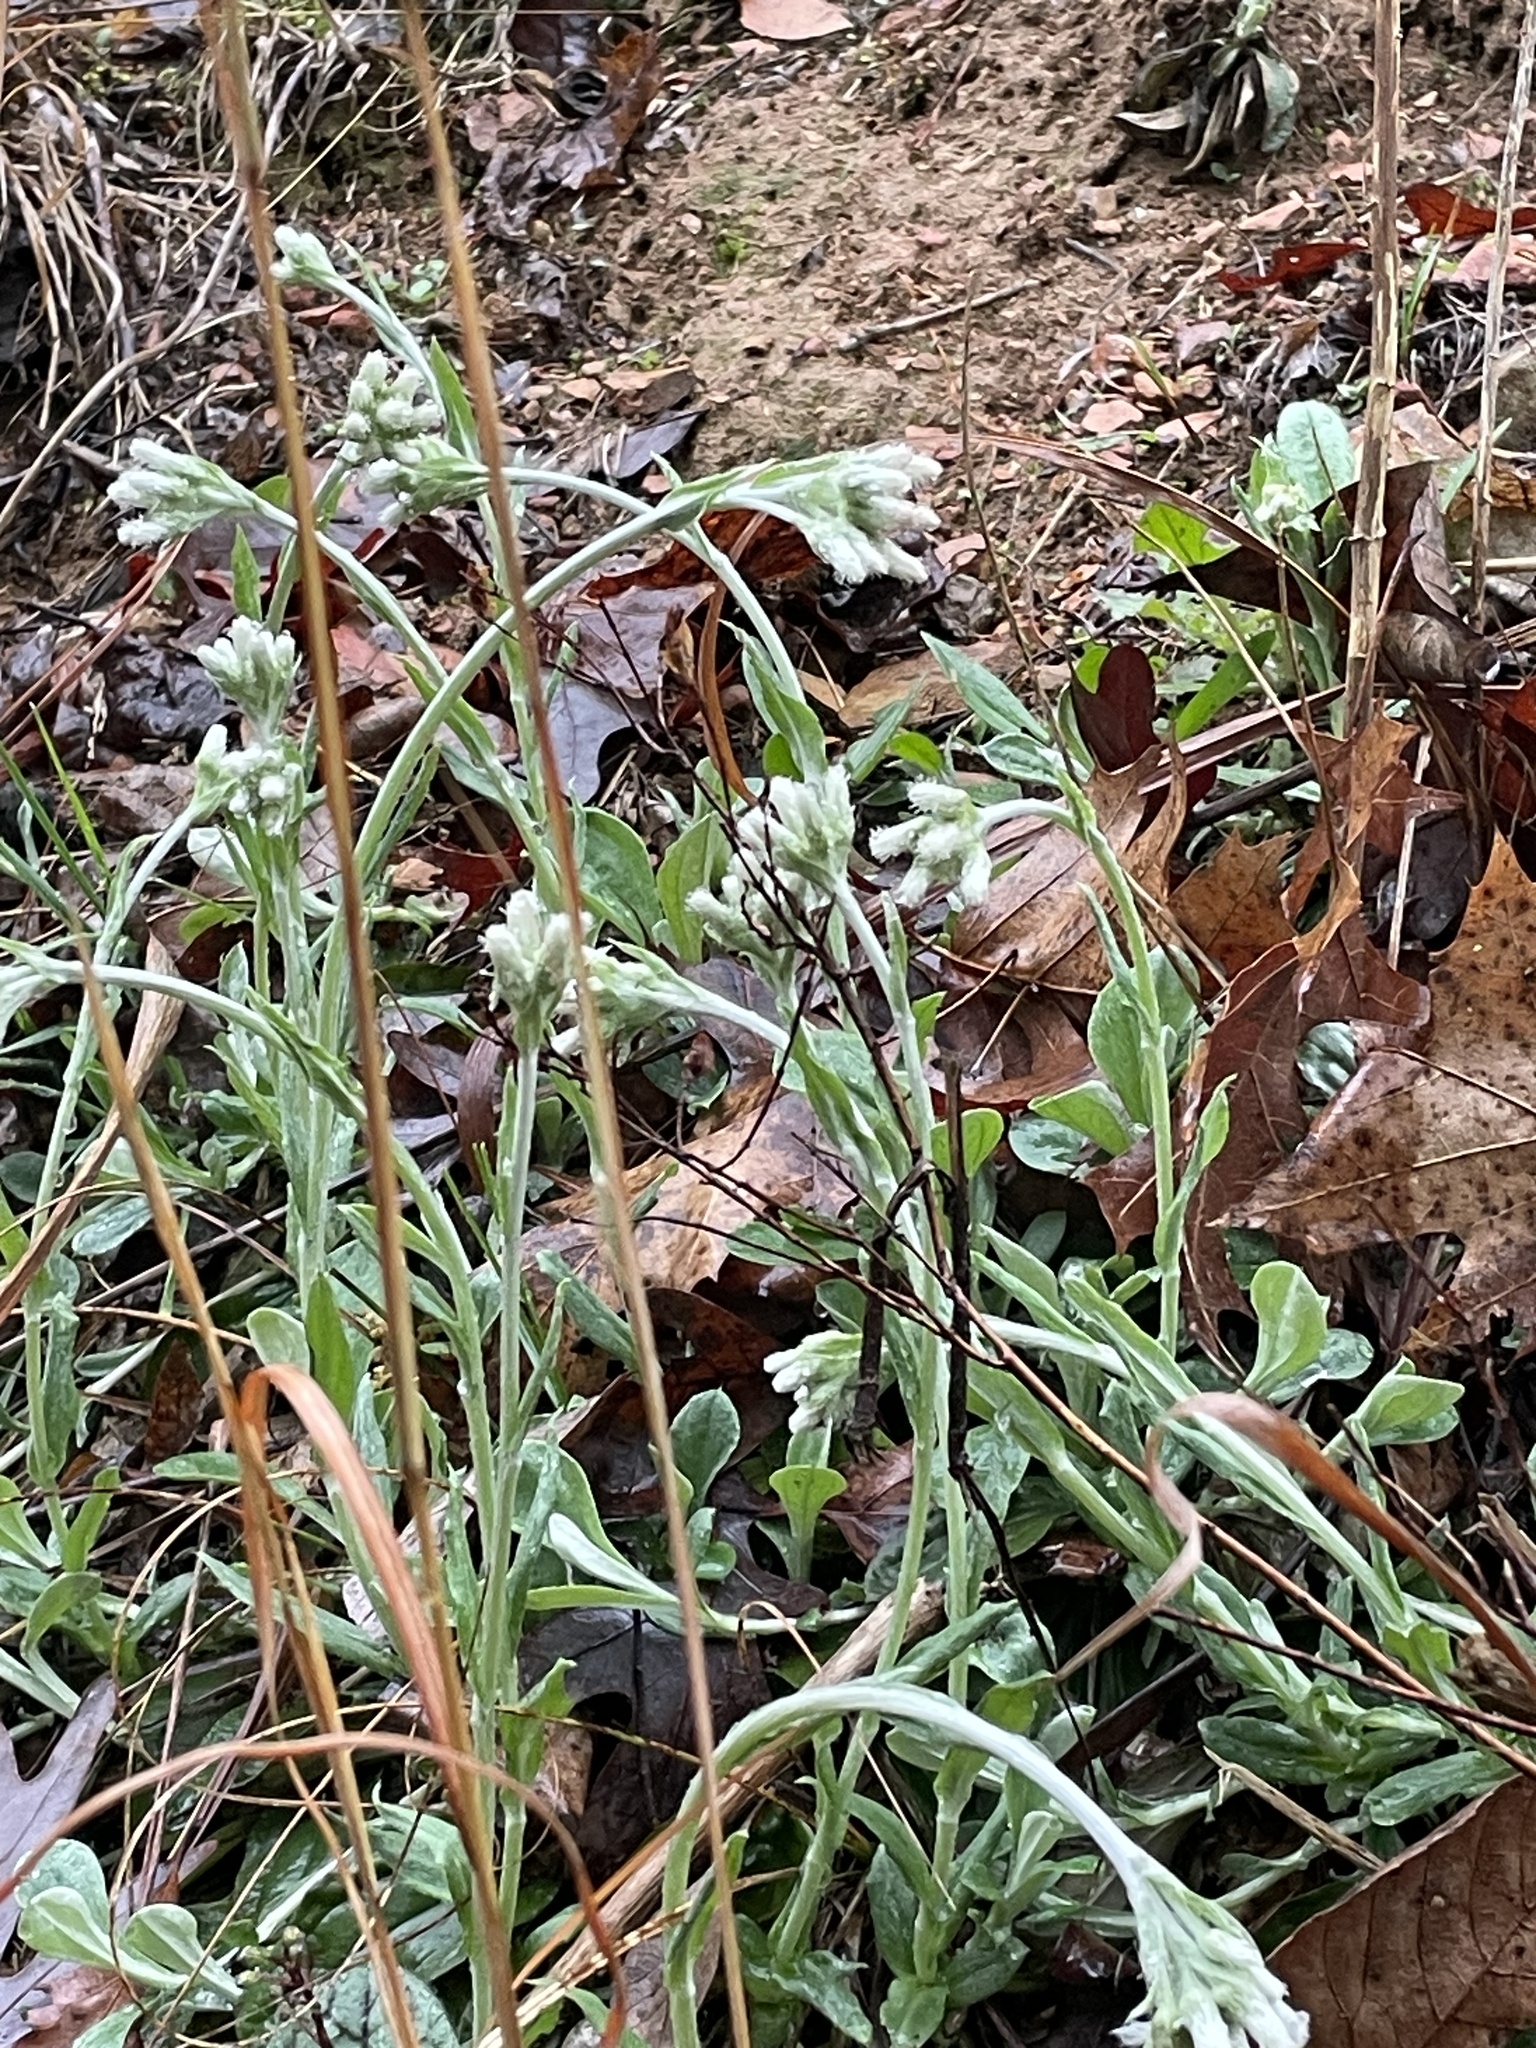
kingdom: Plantae
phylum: Tracheophyta
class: Magnoliopsida
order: Asterales
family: Asteraceae
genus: Antennaria
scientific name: Antennaria parlinii
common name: Parlin's pussytoes
